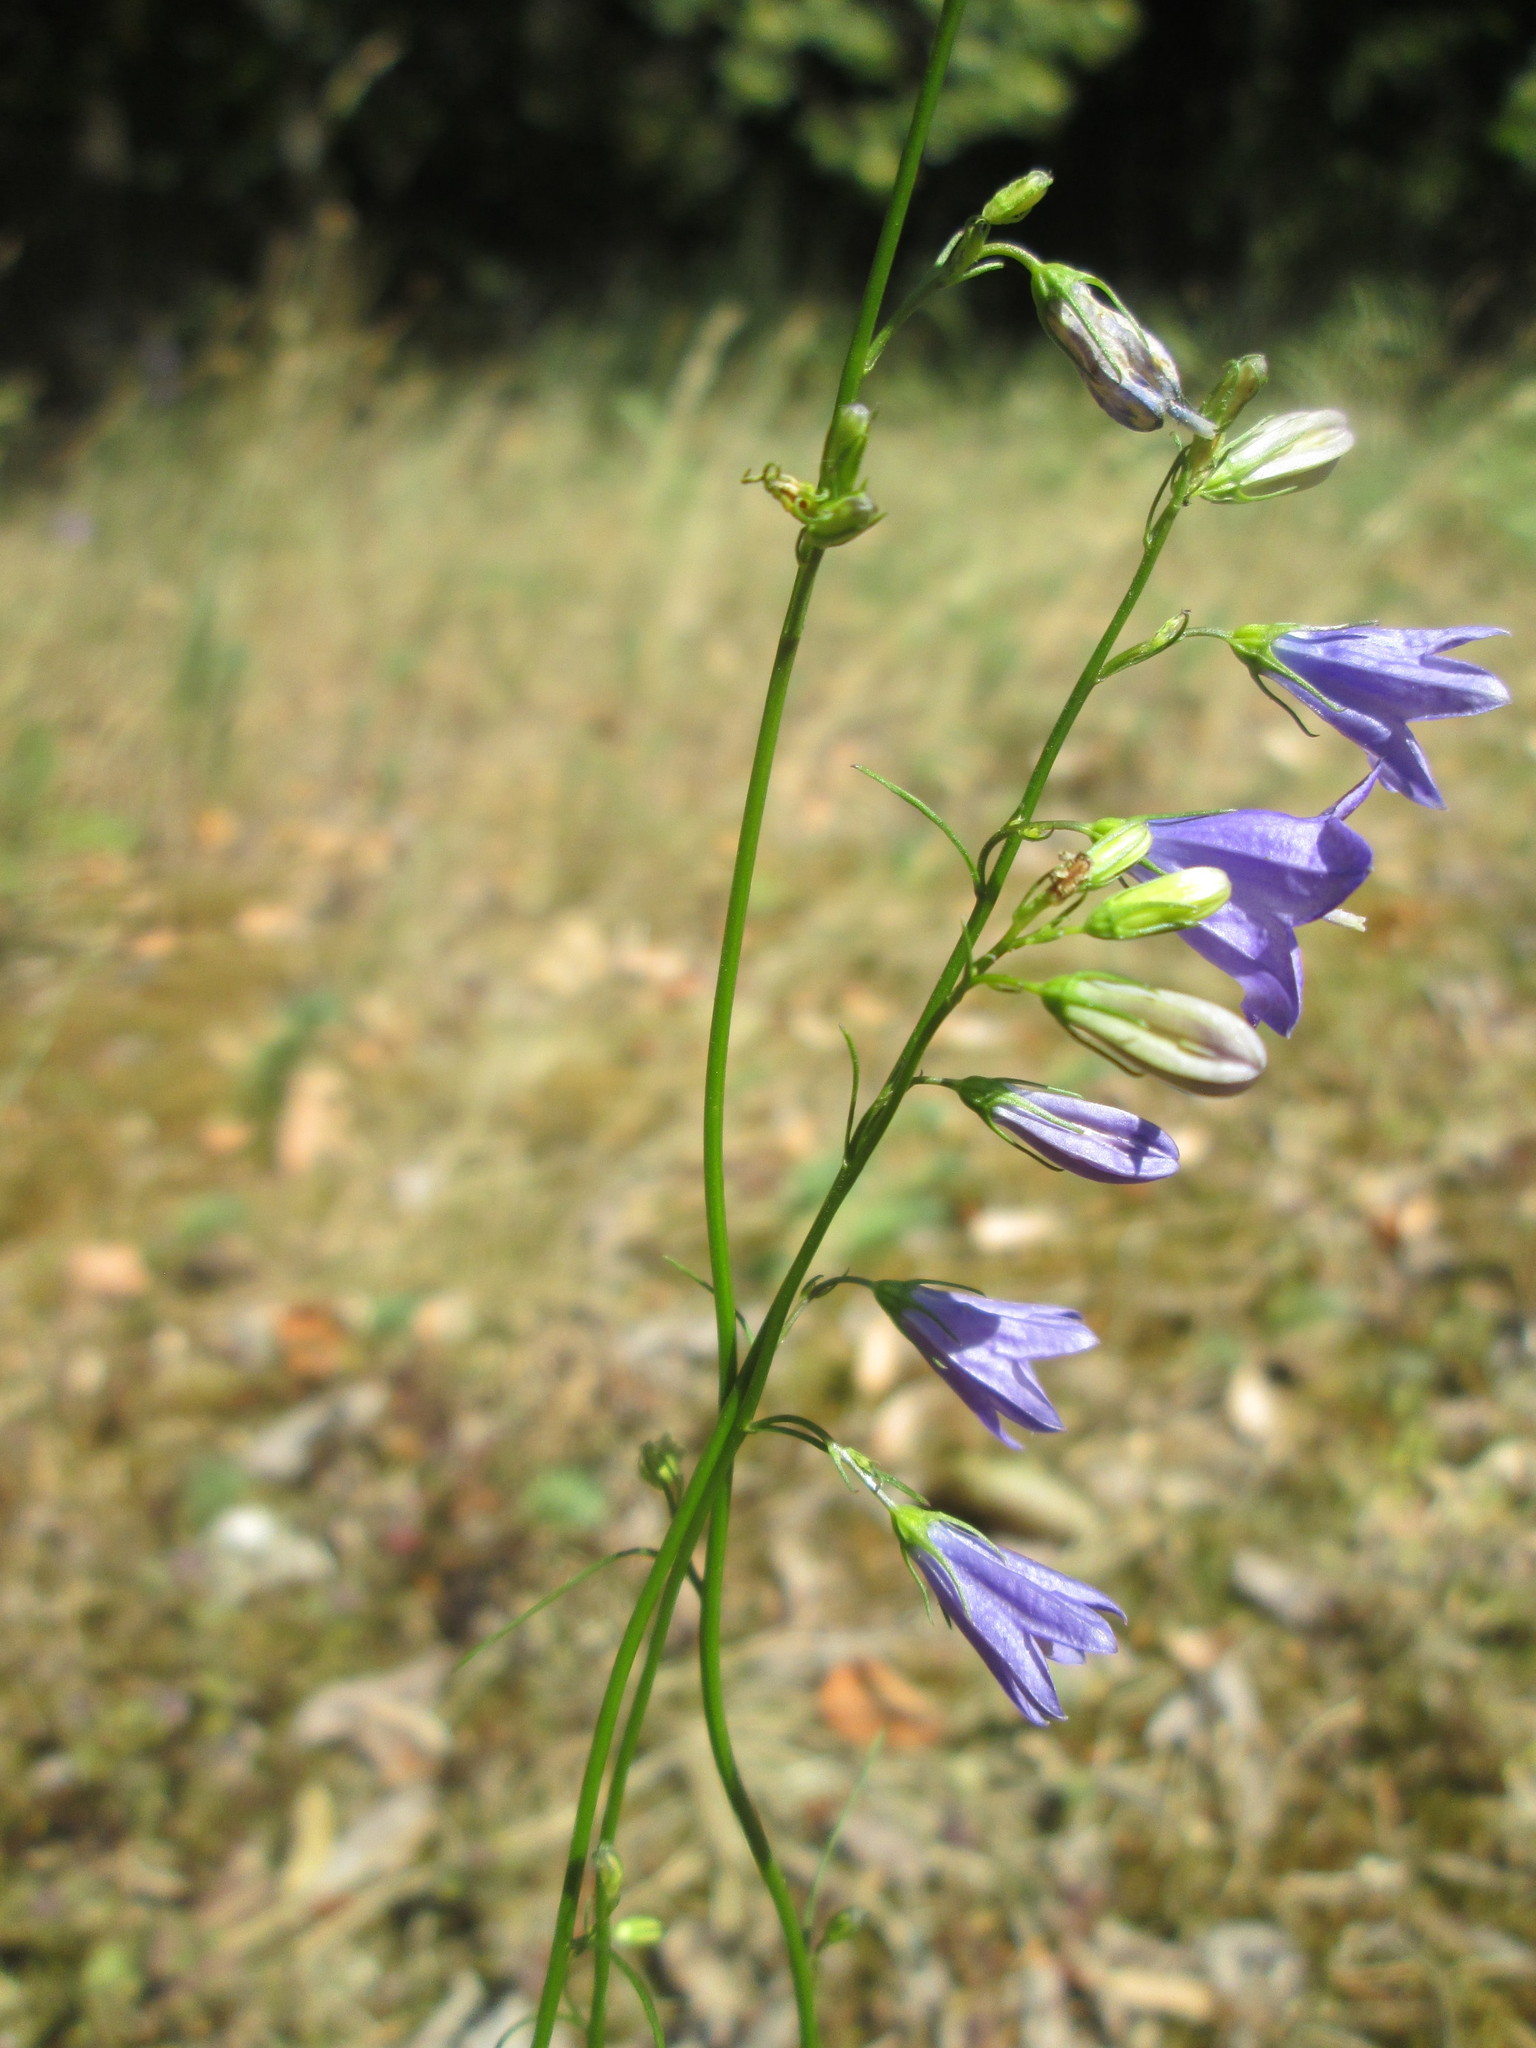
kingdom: Plantae
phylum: Tracheophyta
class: Magnoliopsida
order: Asterales
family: Campanulaceae
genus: Campanula
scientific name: Campanula rotundifolia
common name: Harebell
